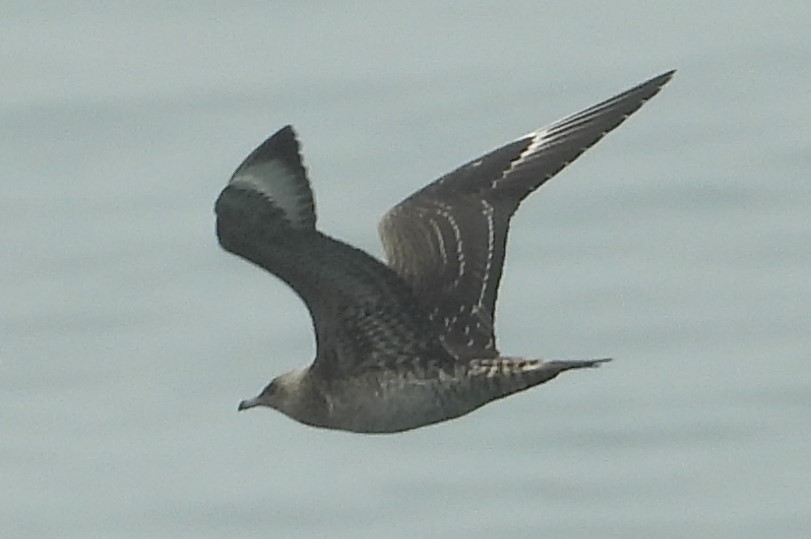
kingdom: Animalia
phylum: Chordata
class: Aves
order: Charadriiformes
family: Stercorariidae
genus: Stercorarius
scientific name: Stercorarius parasiticus
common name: Parasitic jaeger
